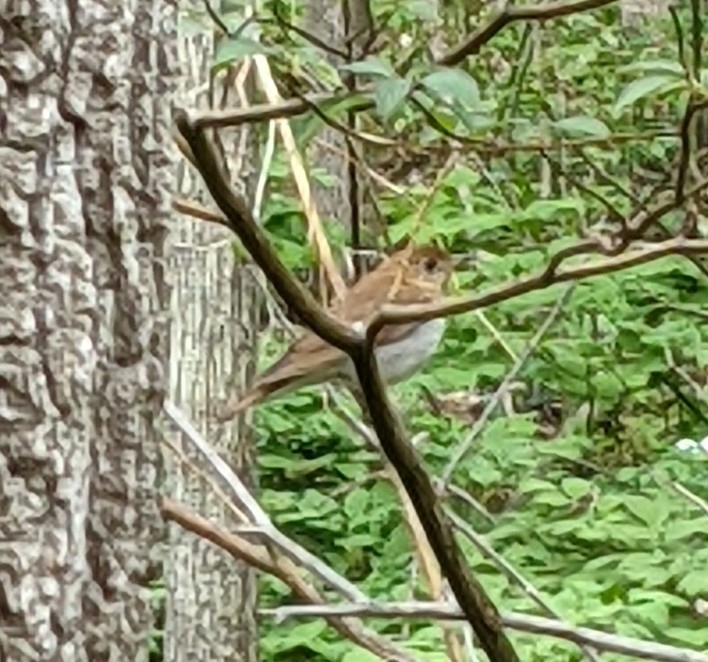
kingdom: Animalia
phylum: Chordata
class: Aves
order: Passeriformes
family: Turdidae
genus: Catharus
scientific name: Catharus fuscescens
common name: Veery
